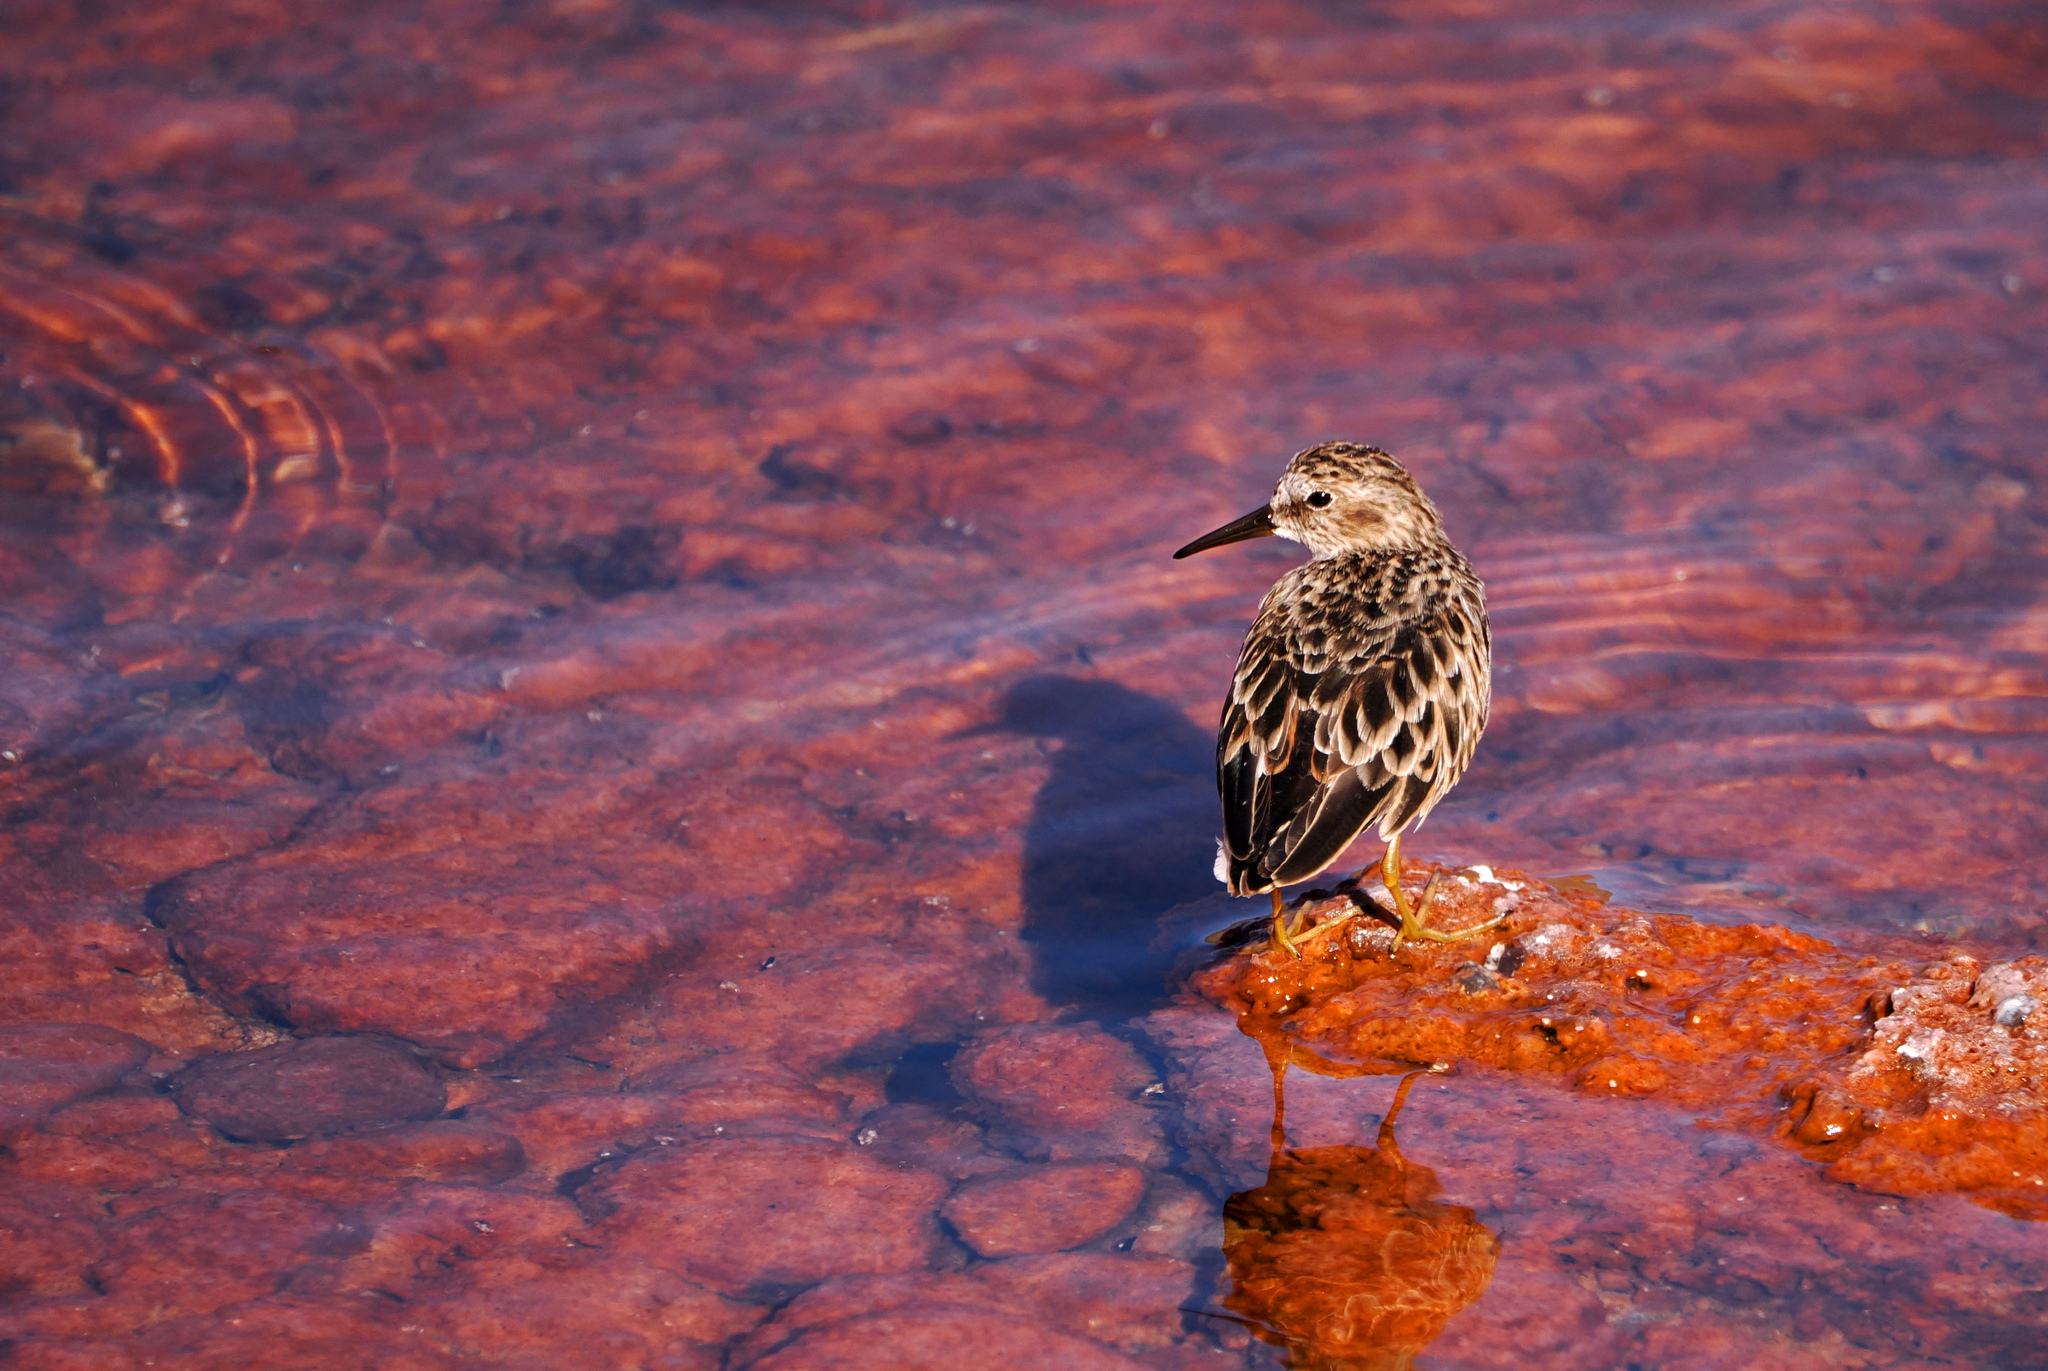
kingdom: Animalia
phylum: Chordata
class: Aves
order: Charadriiformes
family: Scolopacidae
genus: Calidris
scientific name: Calidris minutilla
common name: Least sandpiper
